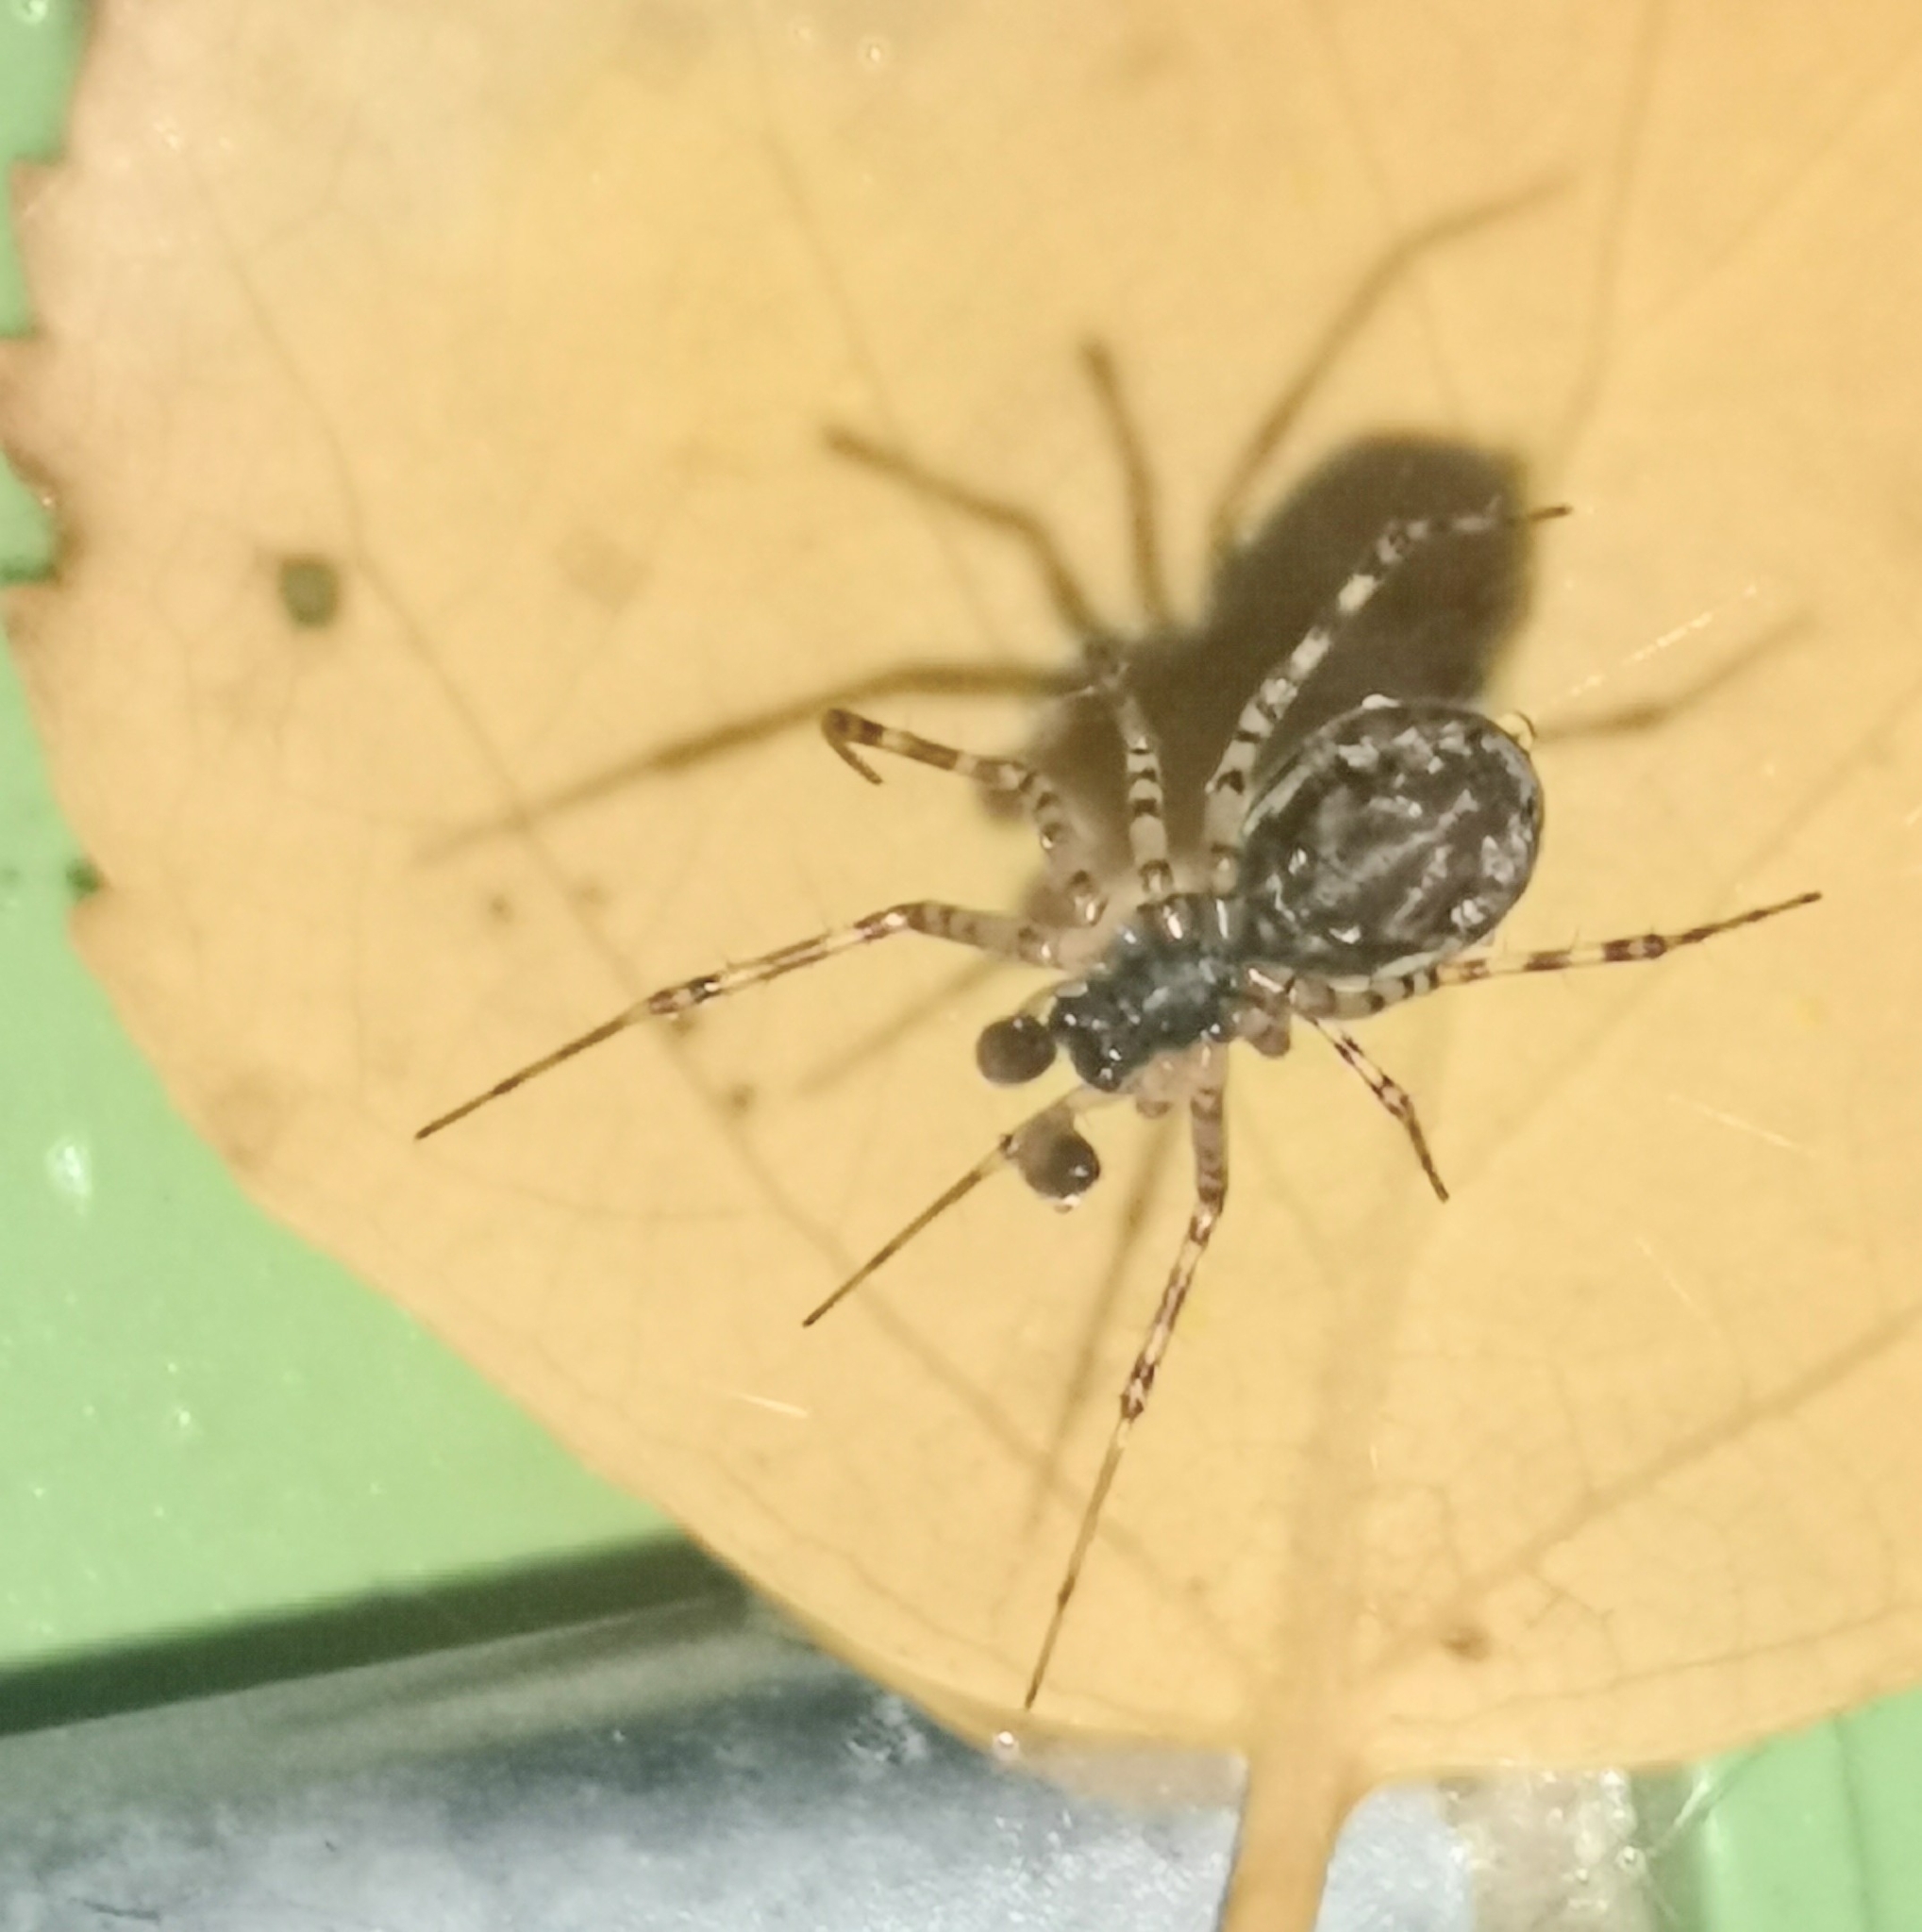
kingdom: Animalia
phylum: Arthropoda
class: Arachnida
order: Araneae
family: Linyphiidae
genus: Neriene
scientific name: Neriene montana
